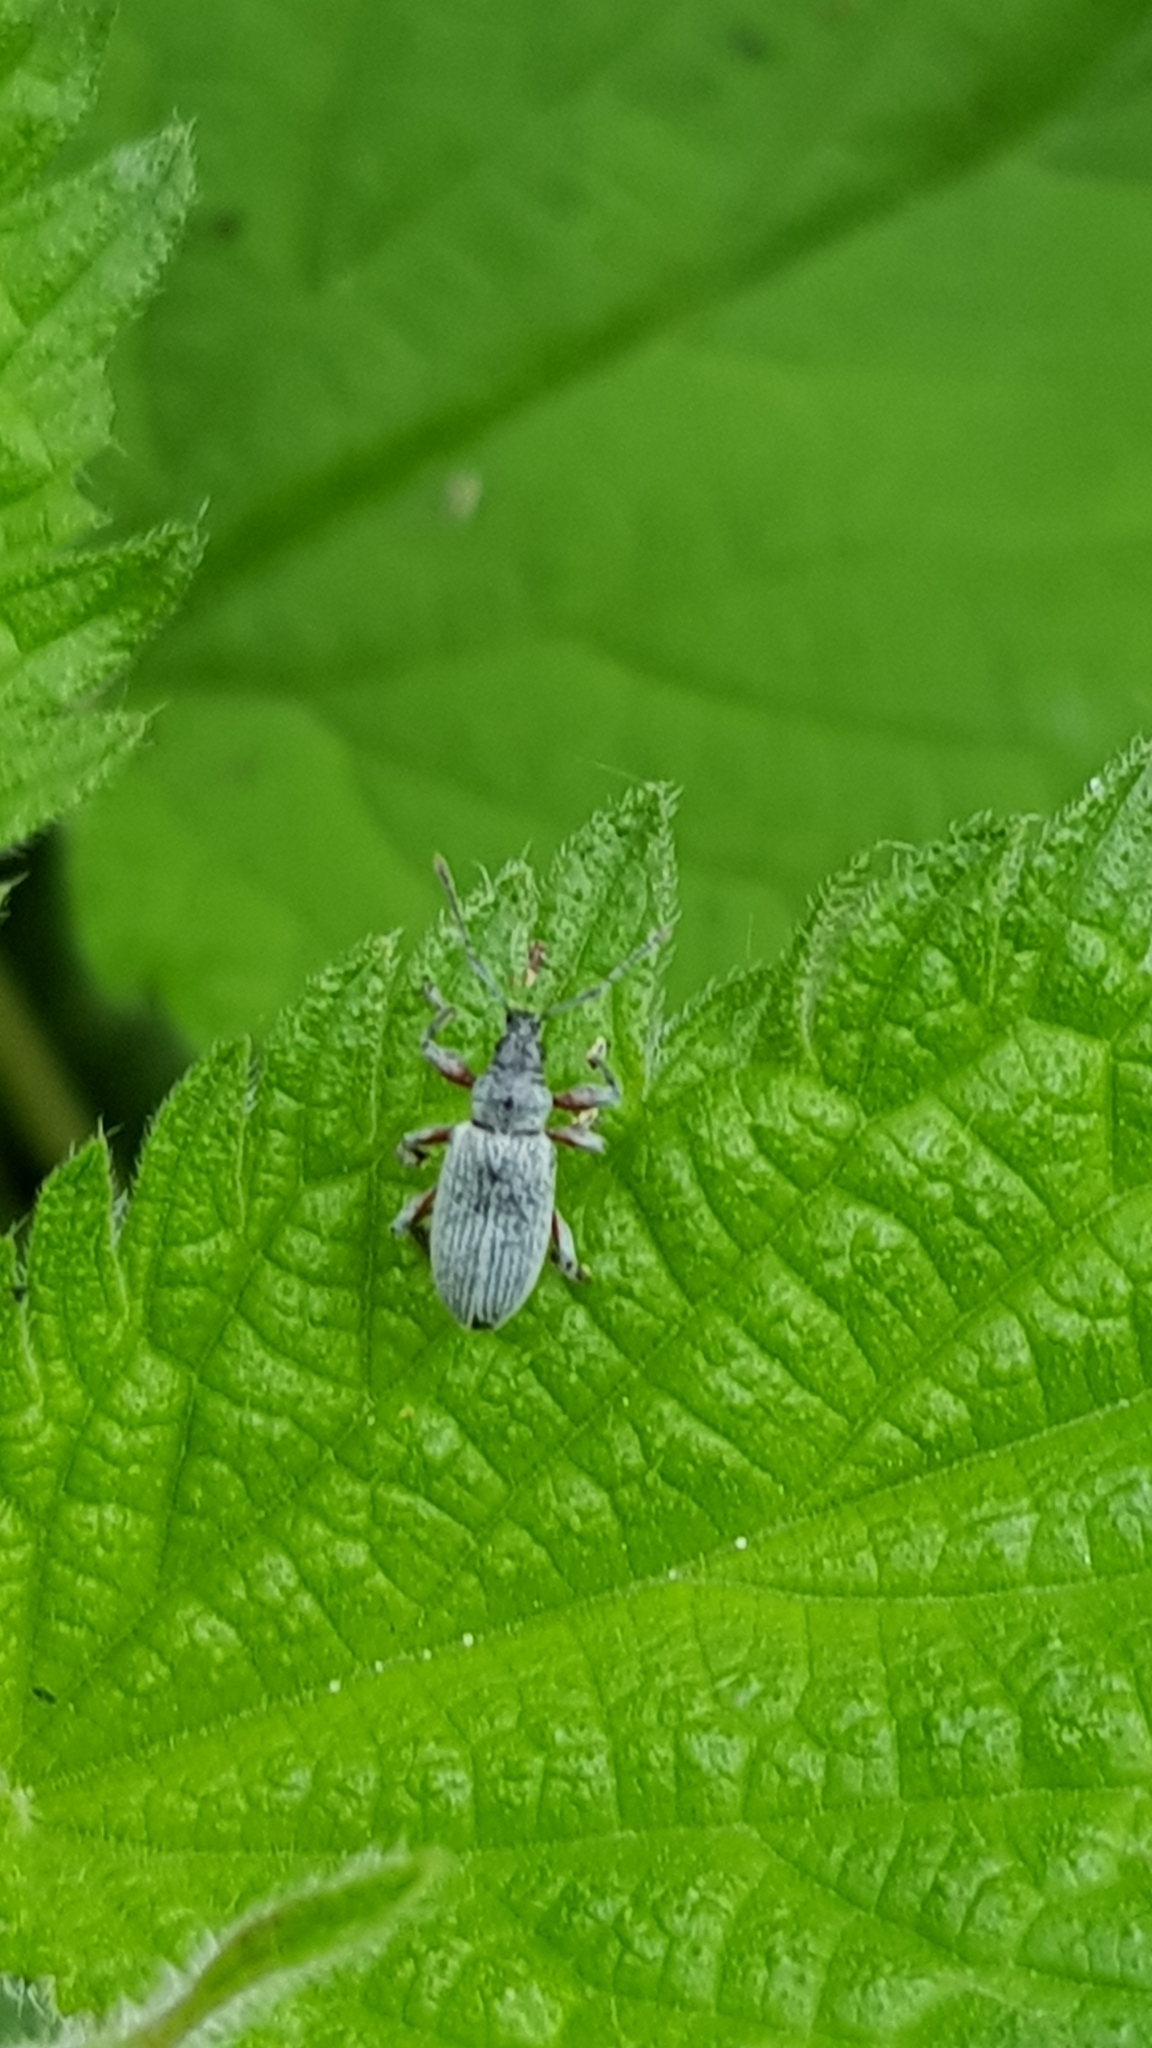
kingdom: Animalia
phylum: Arthropoda
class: Insecta
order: Coleoptera
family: Curculionidae
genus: Phyllobius
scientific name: Phyllobius pomaceus
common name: Green nettle weevil
